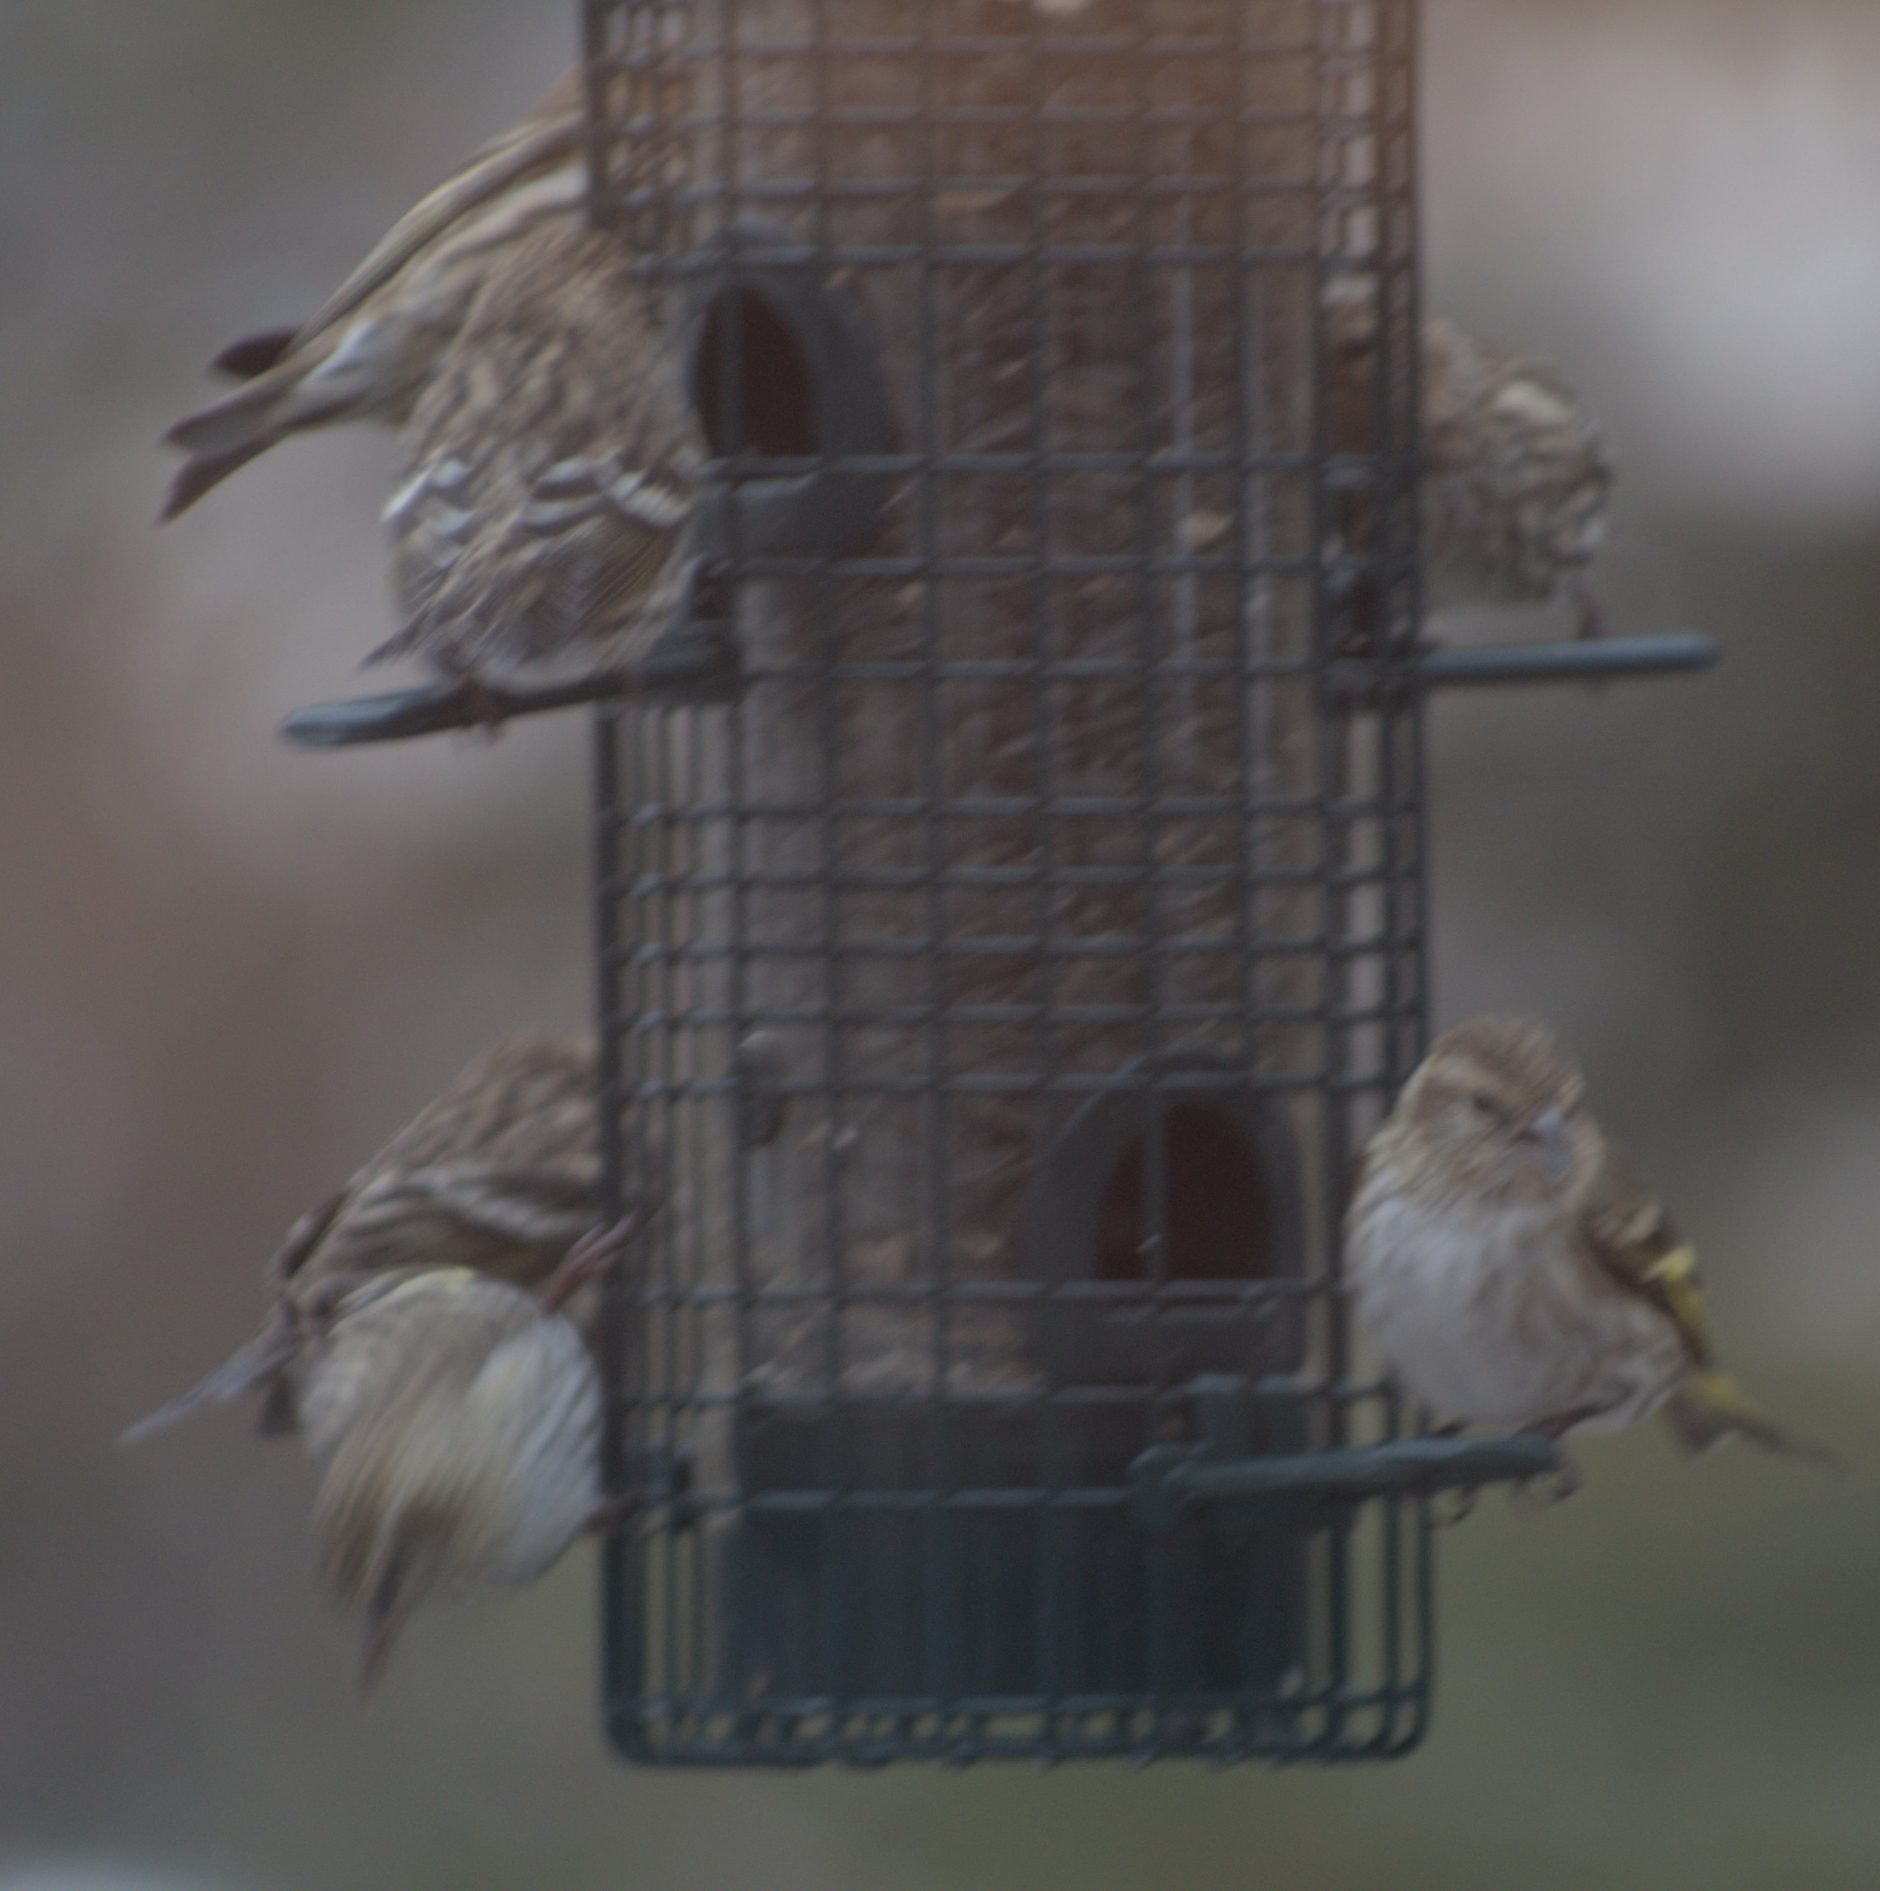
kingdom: Animalia
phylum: Chordata
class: Aves
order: Passeriformes
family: Fringillidae
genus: Spinus
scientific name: Spinus pinus
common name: Pine siskin
